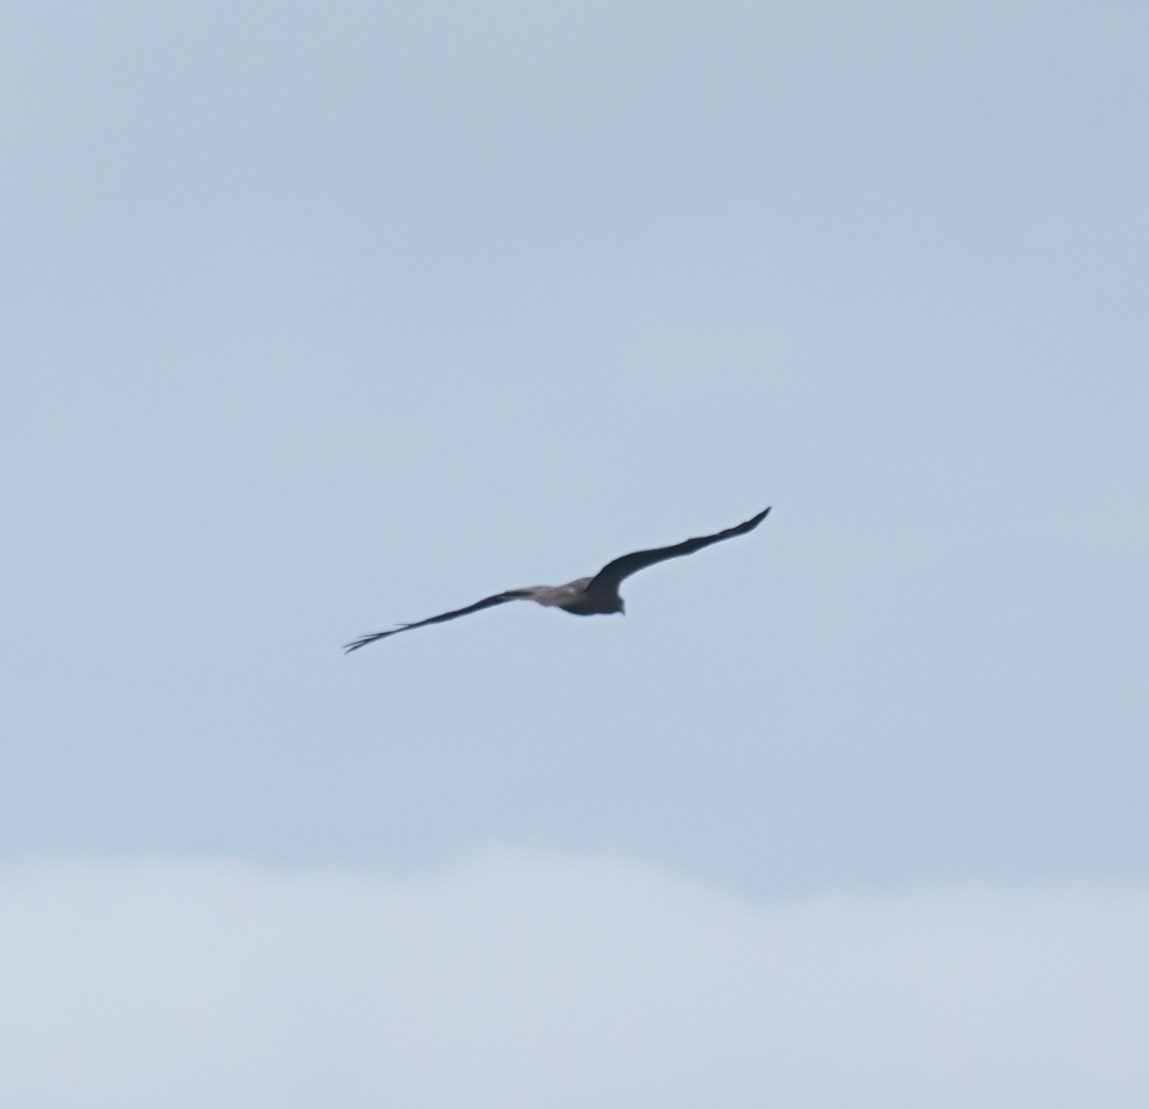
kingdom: Animalia
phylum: Chordata
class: Aves
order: Accipitriformes
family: Accipitridae
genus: Milvus
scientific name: Milvus migrans
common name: Black kite
